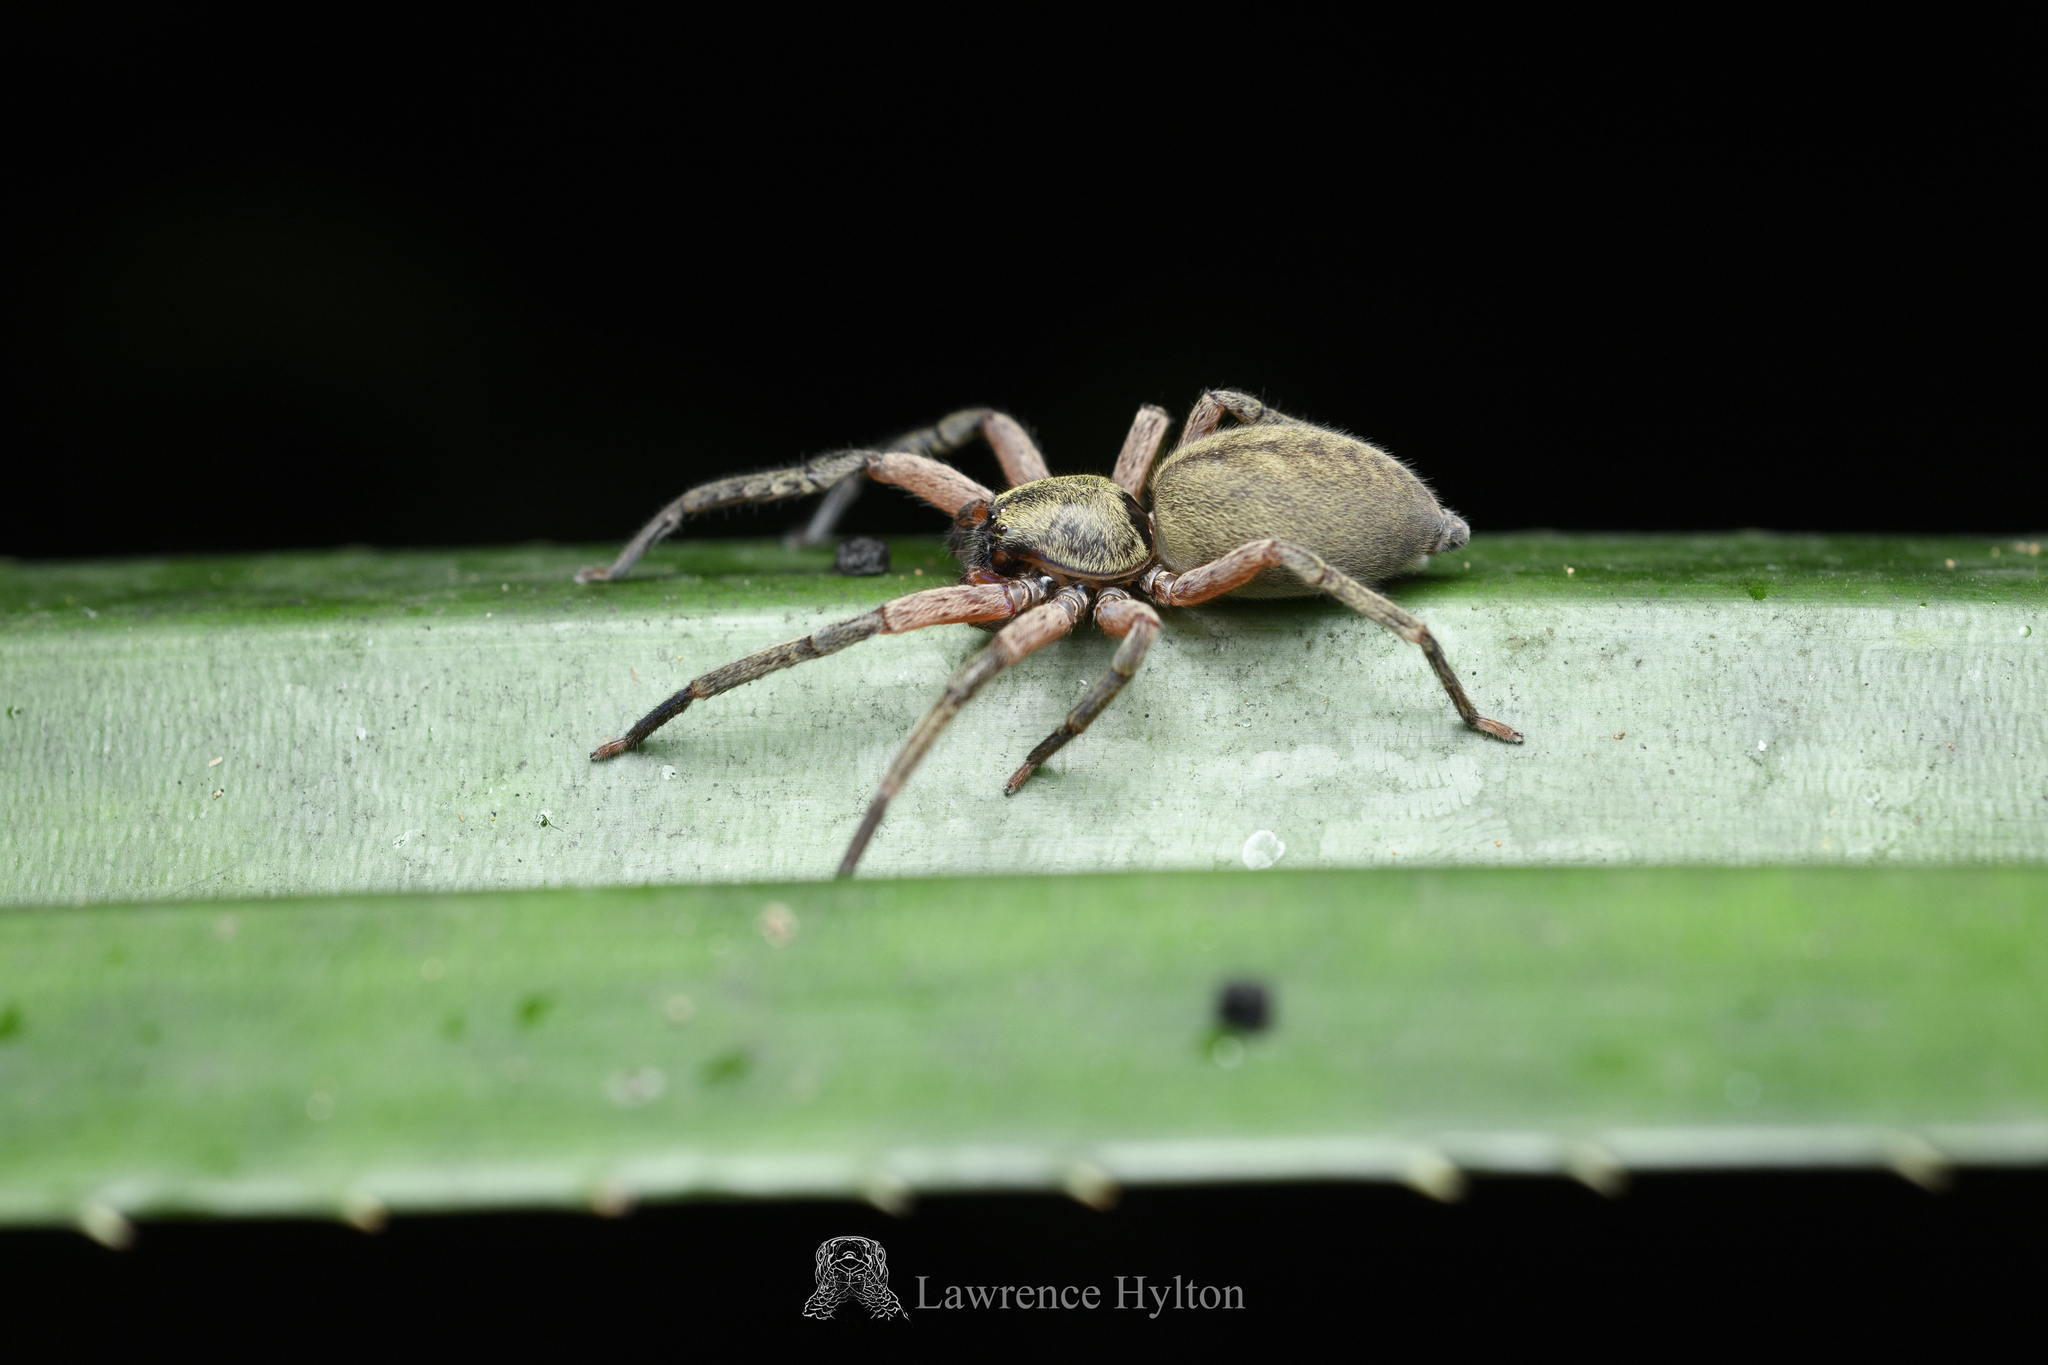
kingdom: Animalia
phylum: Arthropoda
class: Arachnida
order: Araneae
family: Sparassidae
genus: Thelcticopis
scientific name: Thelcticopis severa
